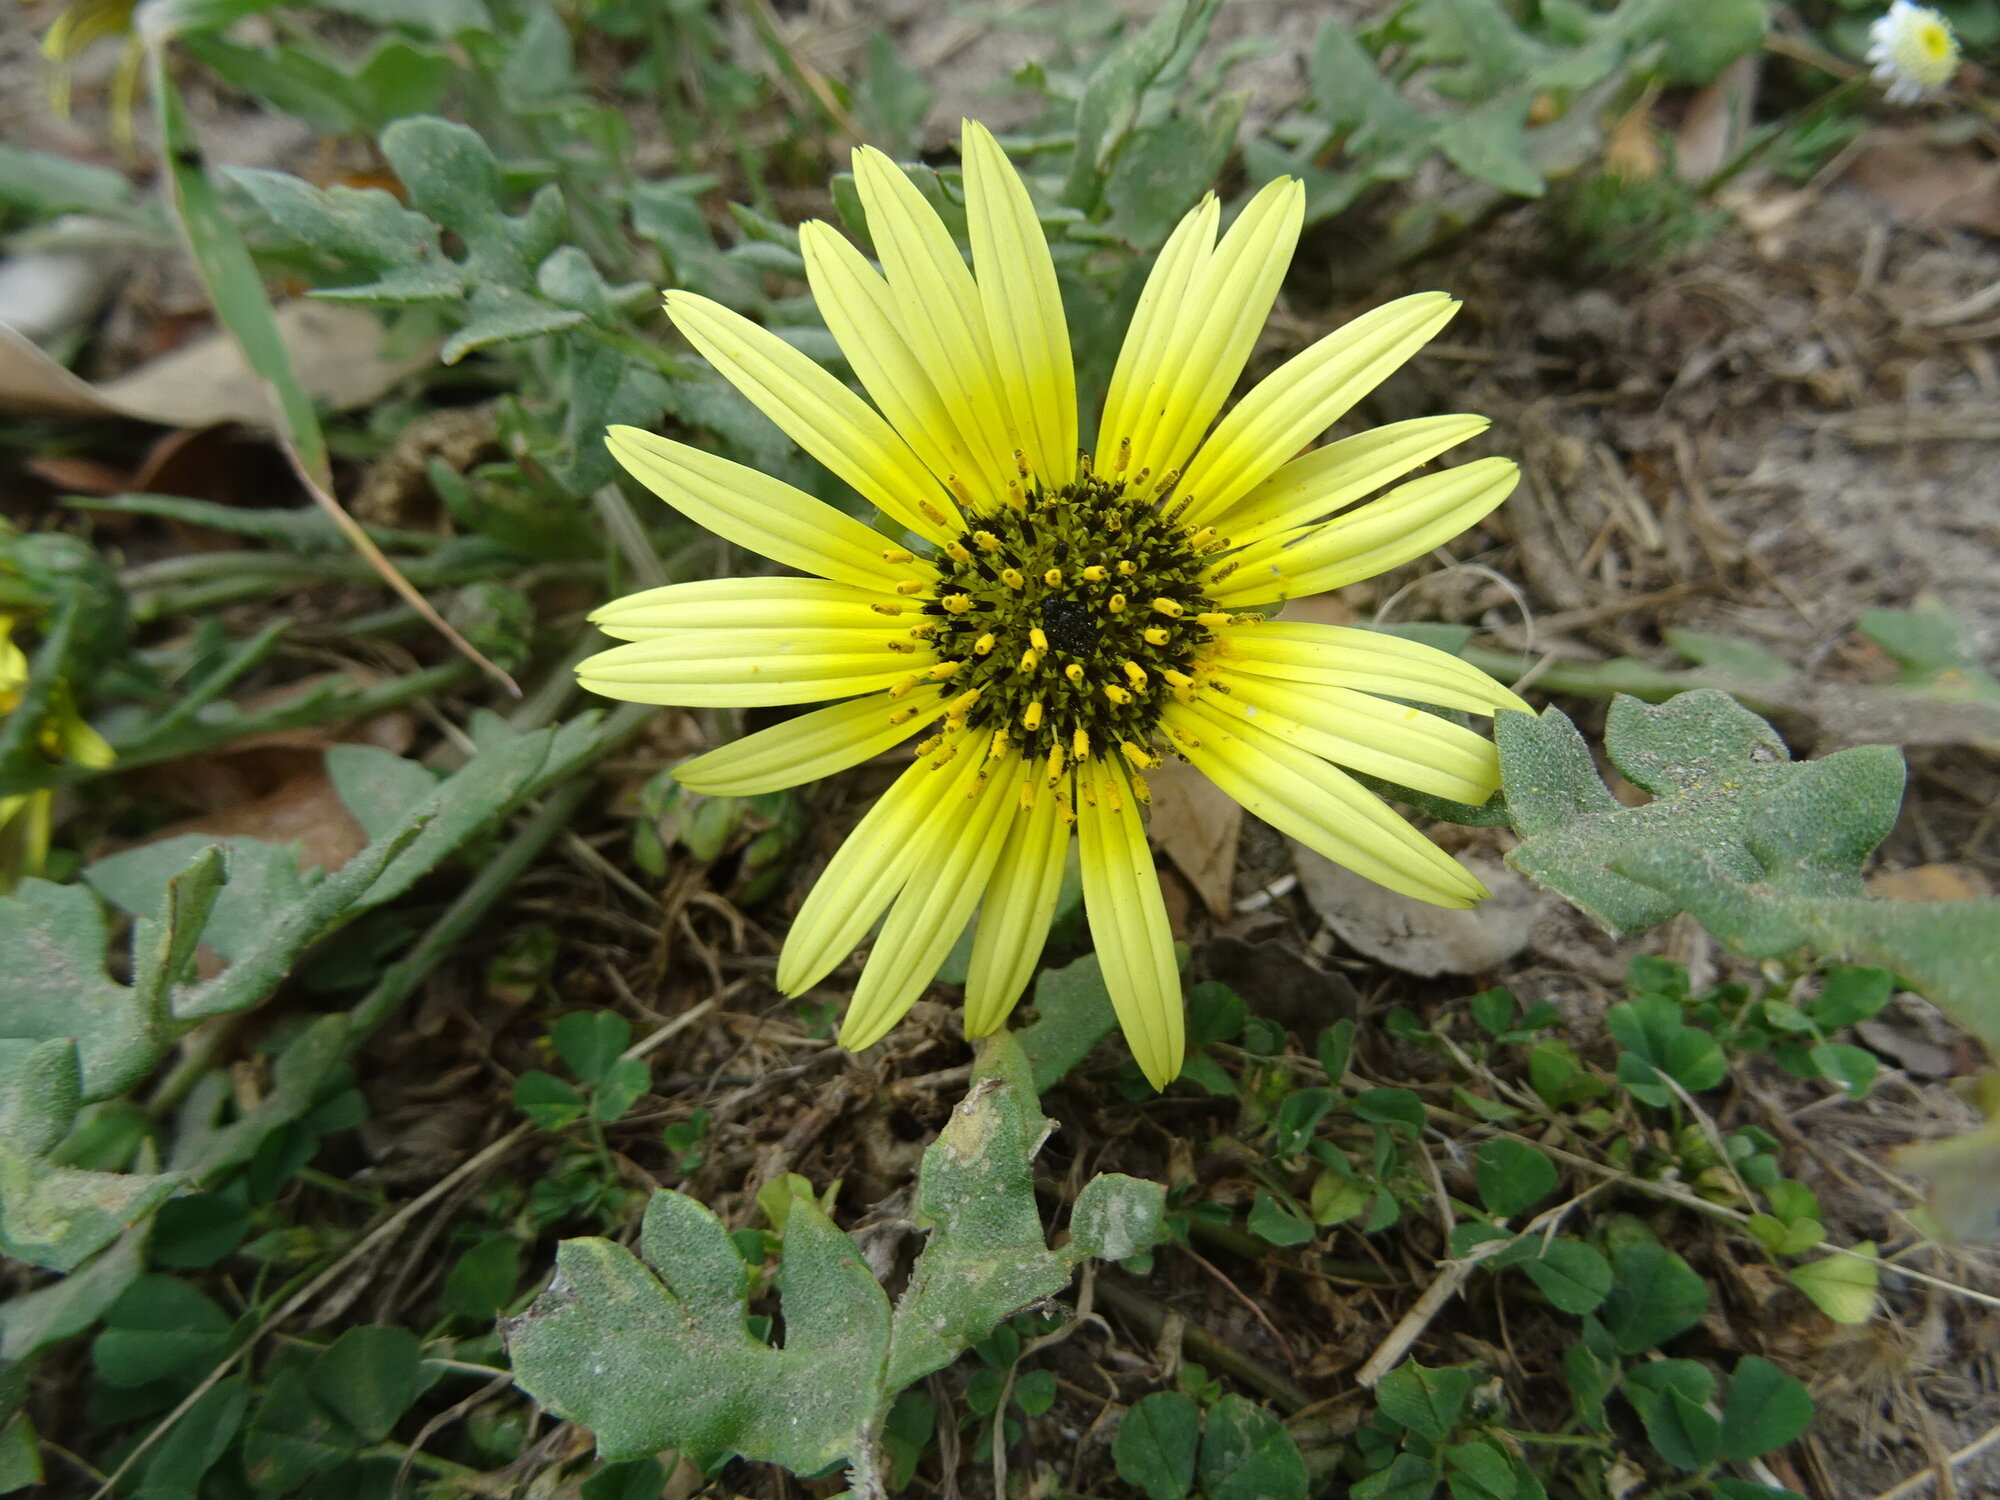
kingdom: Plantae
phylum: Tracheophyta
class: Magnoliopsida
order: Asterales
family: Asteraceae
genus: Arctotheca
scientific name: Arctotheca calendula
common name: Capeweed
